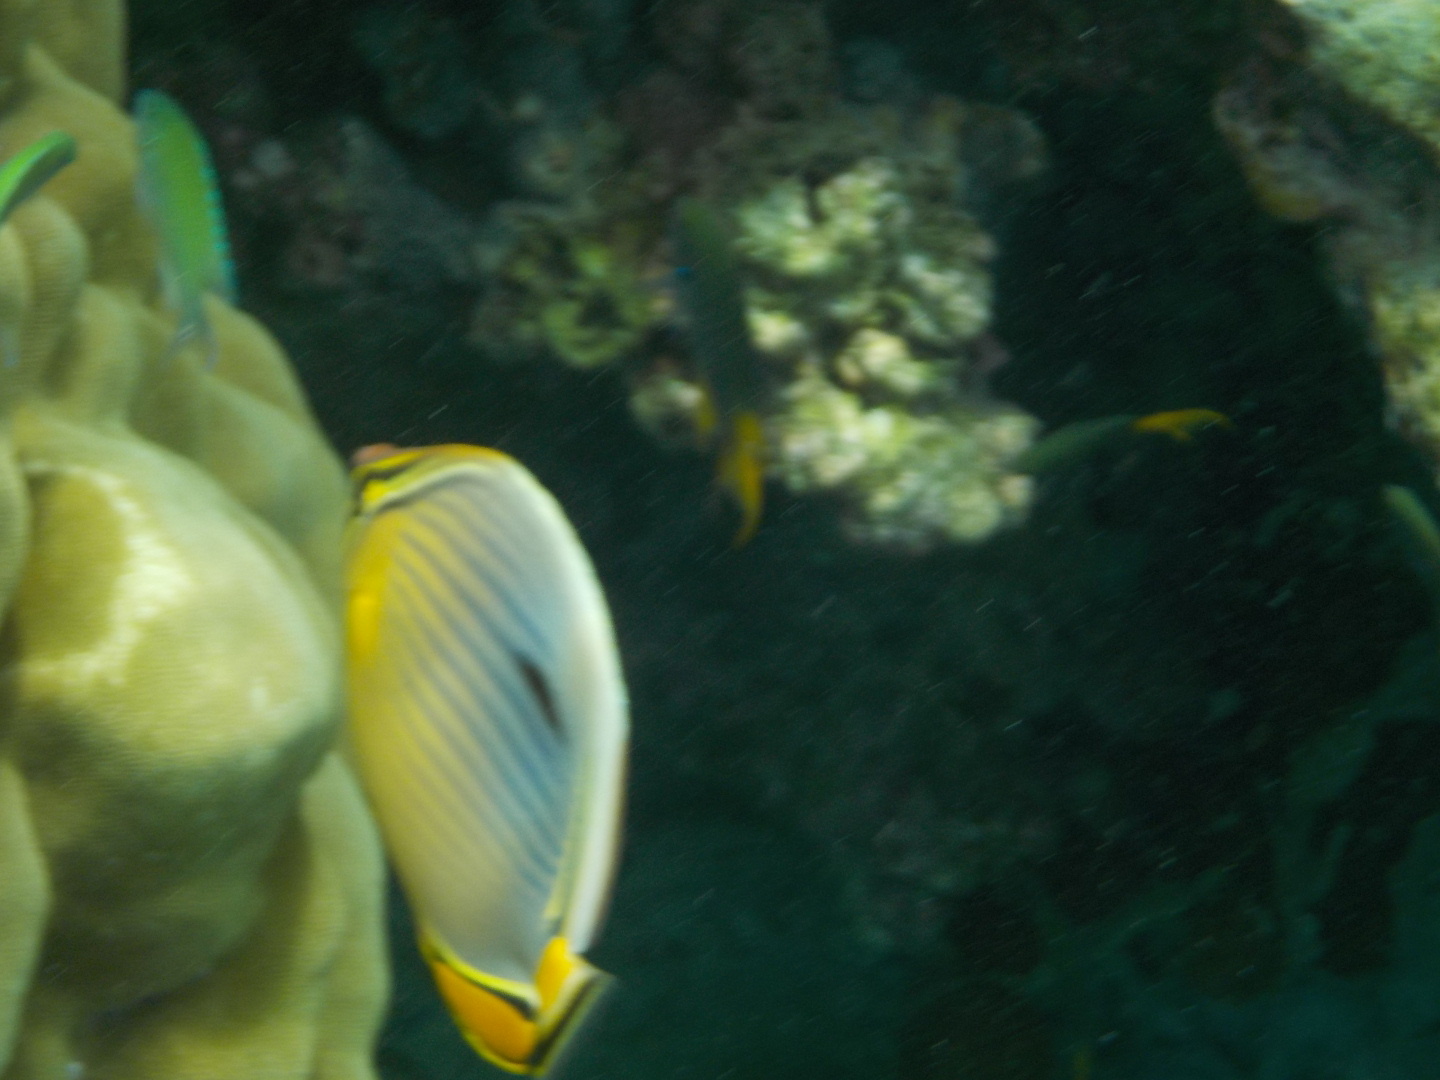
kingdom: Animalia
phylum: Chordata
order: Perciformes
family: Chaetodontidae
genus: Chaetodon
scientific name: Chaetodon trifasciatus
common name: Redfin butterflyfish
